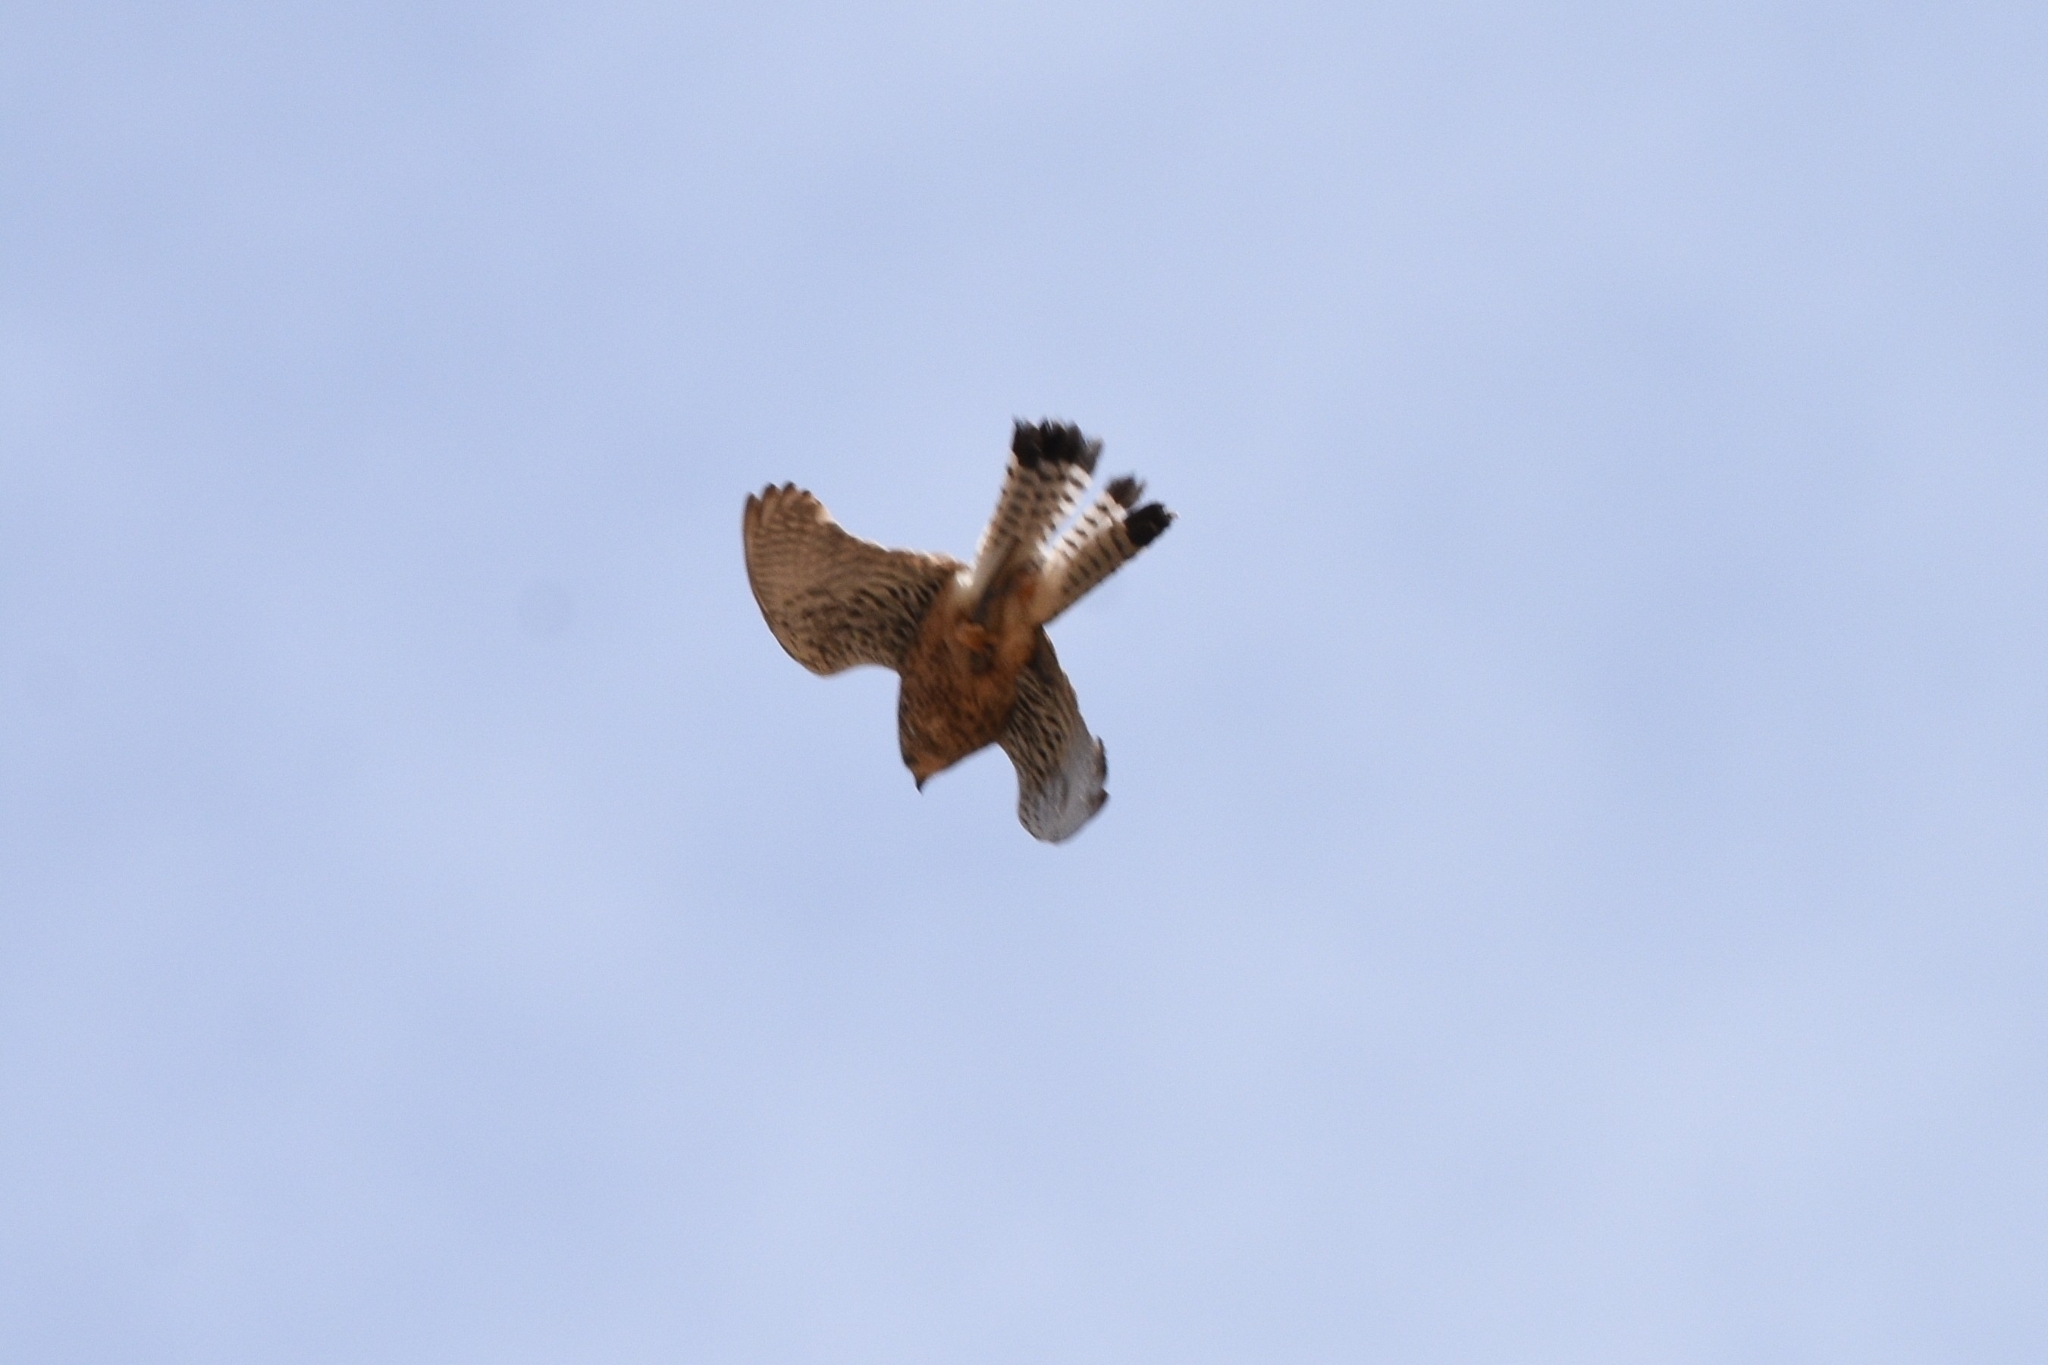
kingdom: Animalia
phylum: Chordata
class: Aves
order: Falconiformes
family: Falconidae
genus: Falco
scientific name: Falco tinnunculus
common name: Common kestrel
